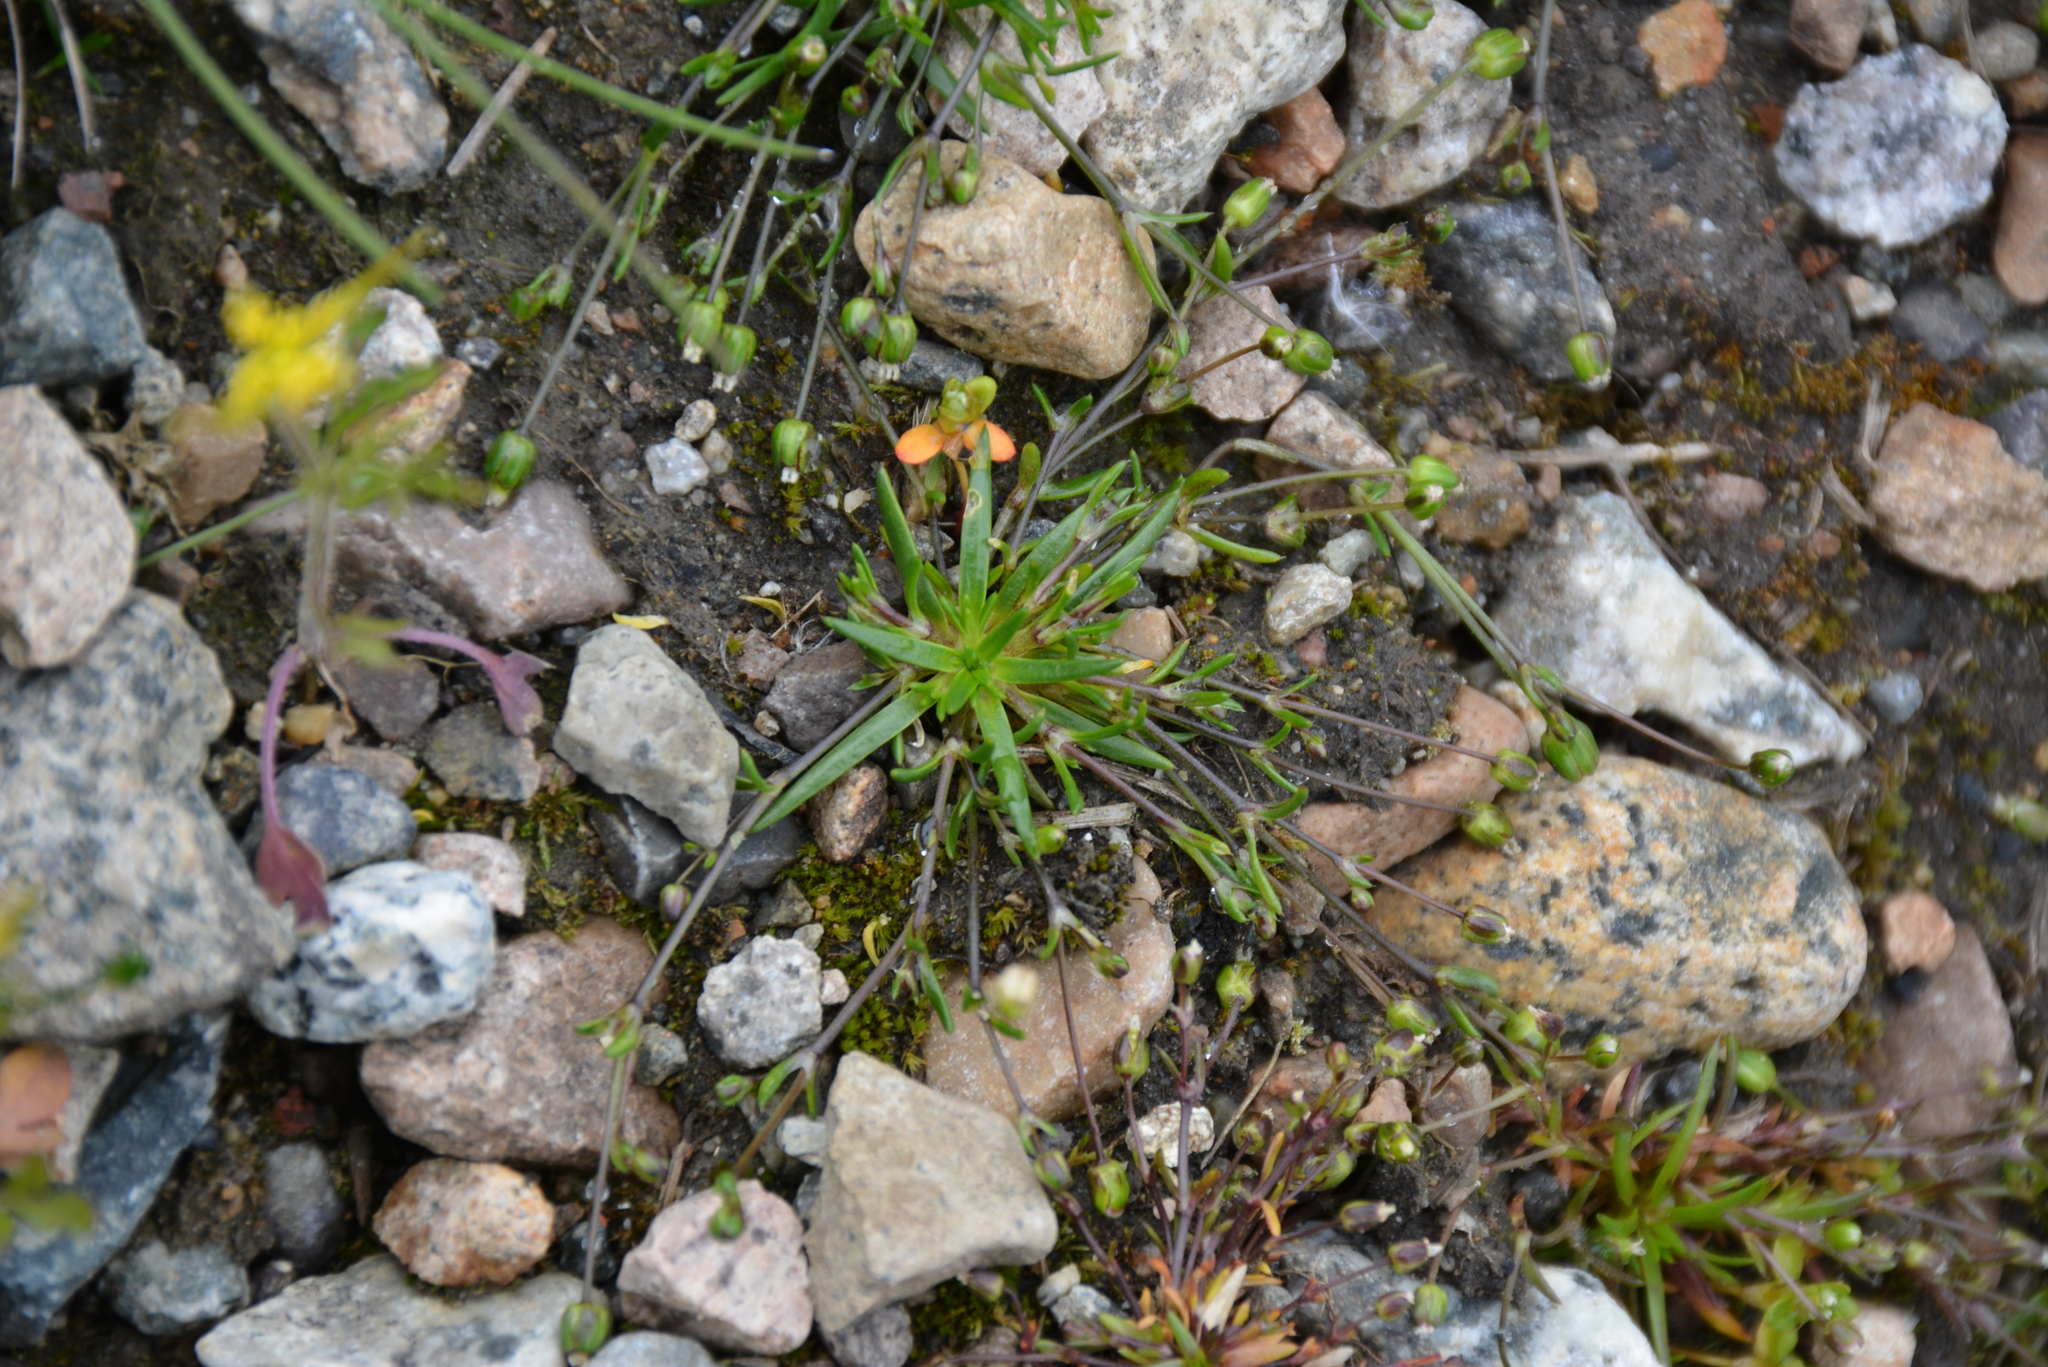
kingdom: Plantae
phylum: Tracheophyta
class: Magnoliopsida
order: Caryophyllales
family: Caryophyllaceae
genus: Sagina
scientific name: Sagina nivalis
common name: Snow pearlwort
